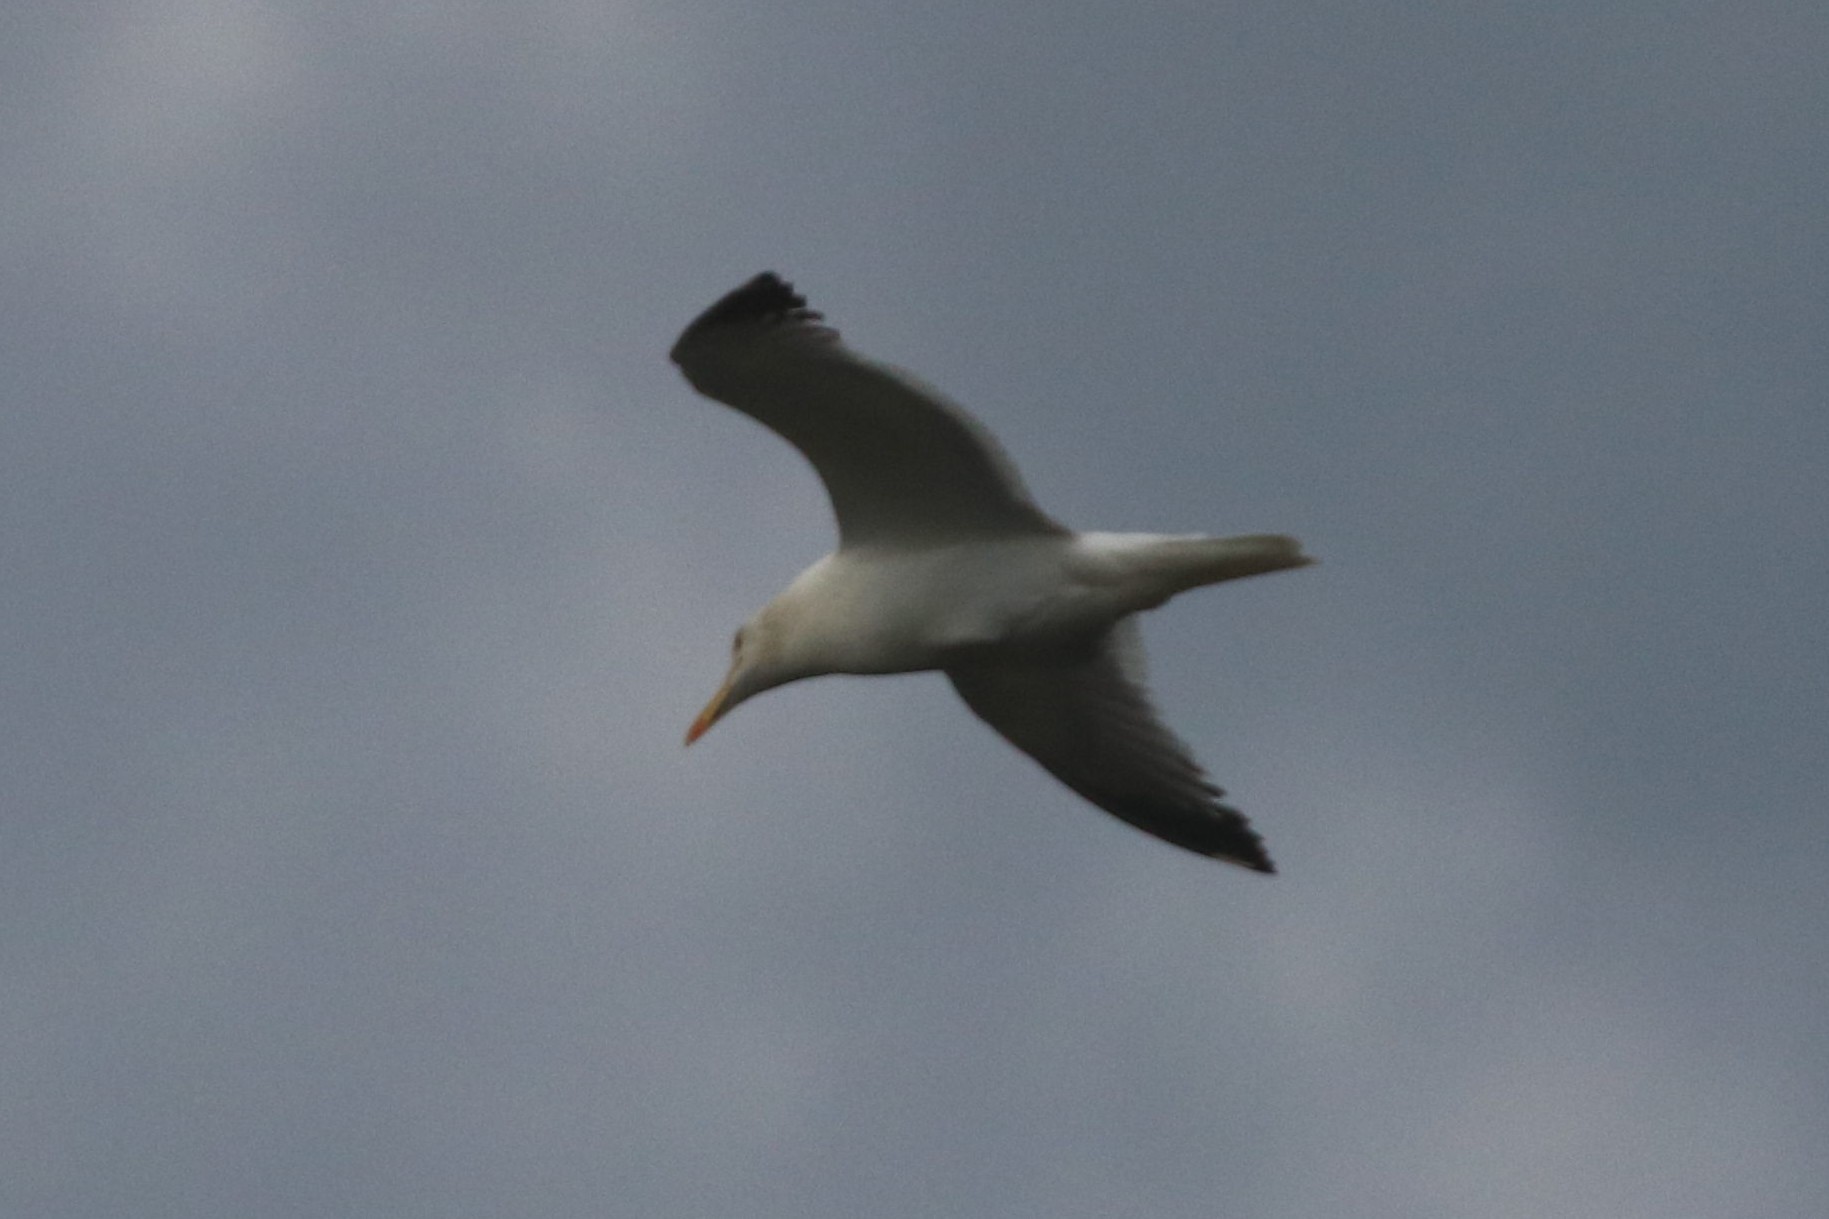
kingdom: Animalia
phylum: Chordata
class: Aves
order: Charadriiformes
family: Laridae
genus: Larus
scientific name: Larus fuscus
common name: Lesser black-backed gull
